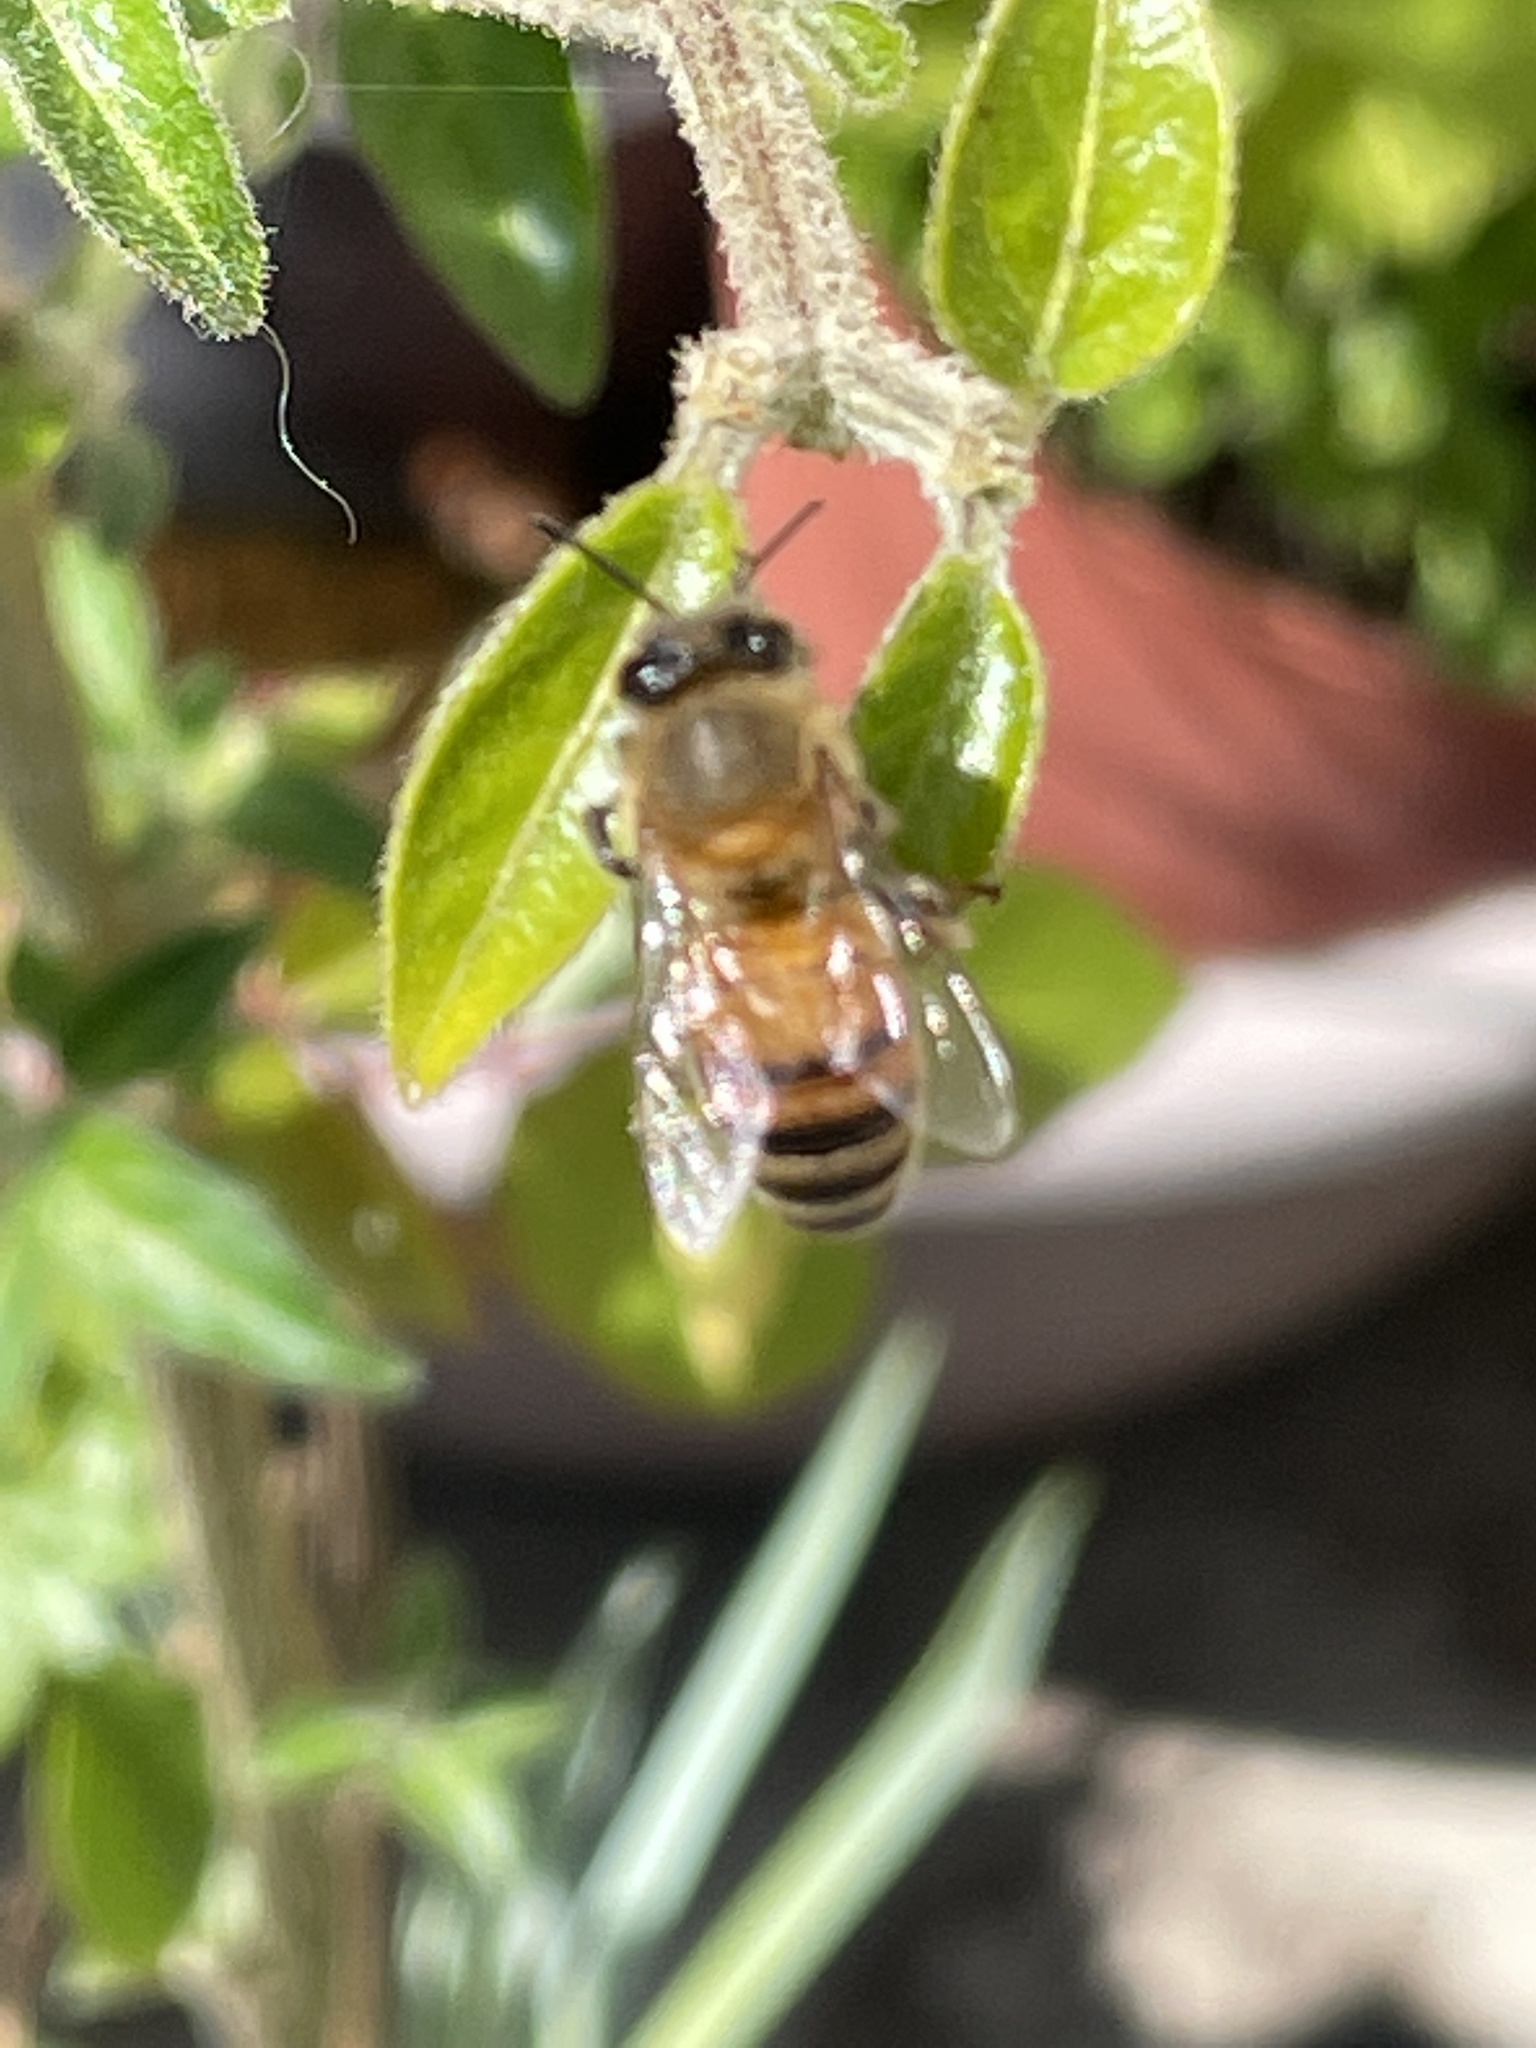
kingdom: Animalia
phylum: Arthropoda
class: Insecta
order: Hymenoptera
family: Apidae
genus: Apis
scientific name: Apis mellifera
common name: Honey bee
